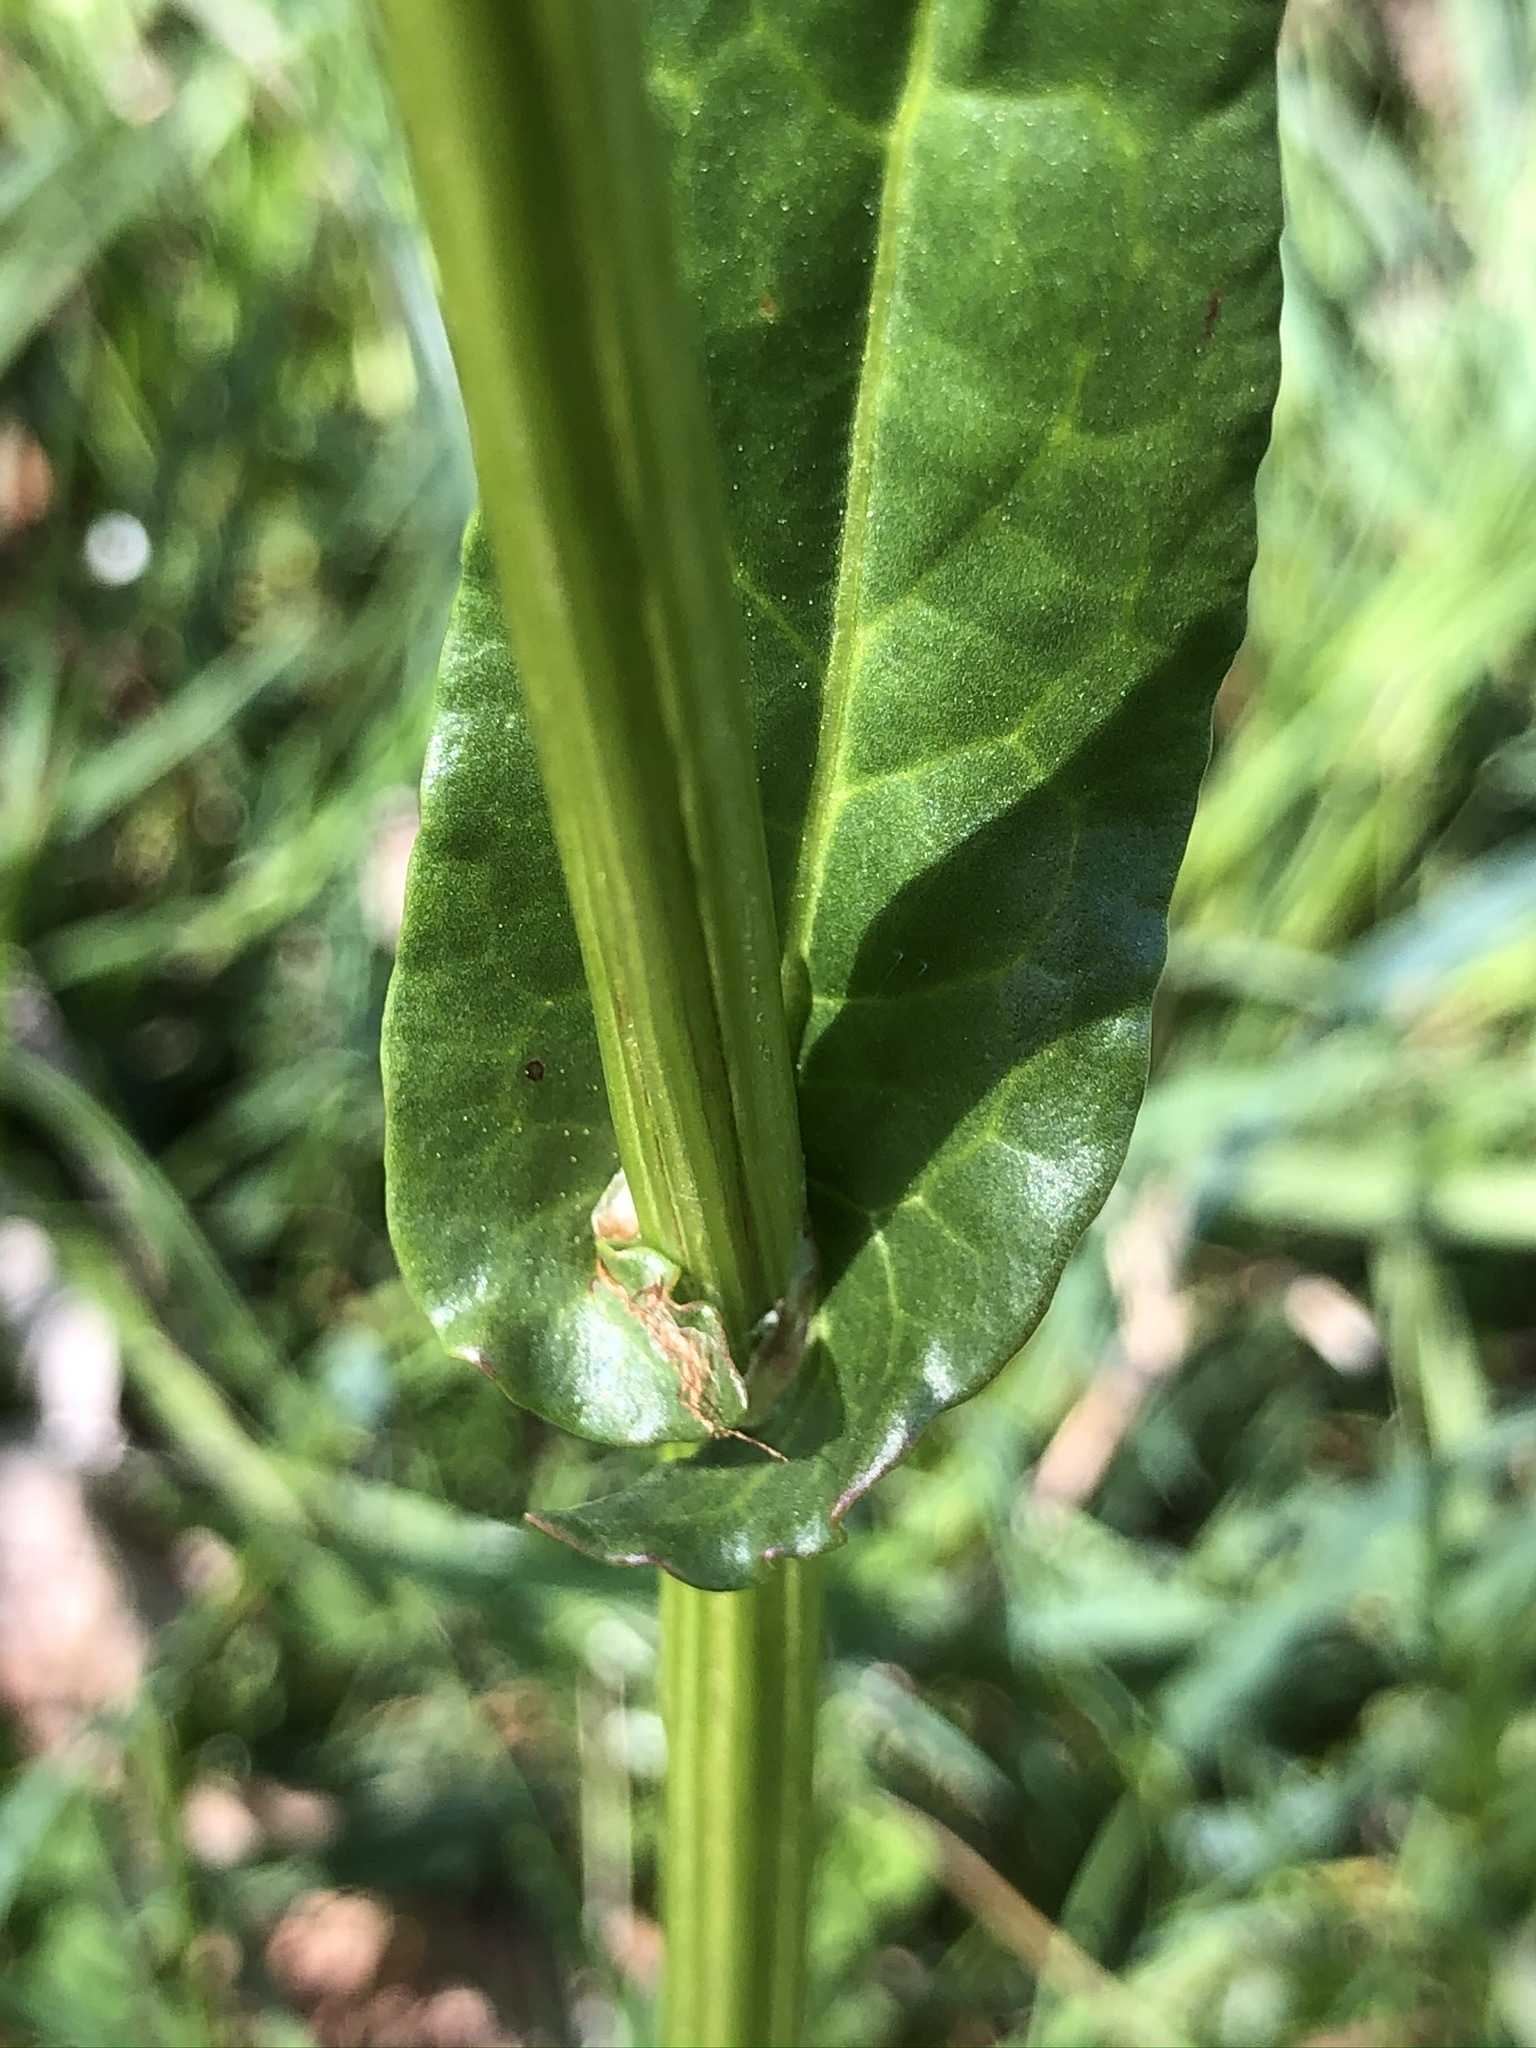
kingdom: Plantae
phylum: Tracheophyta
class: Magnoliopsida
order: Caryophyllales
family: Polygonaceae
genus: Rumex
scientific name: Rumex acetosa
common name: Garden sorrel
